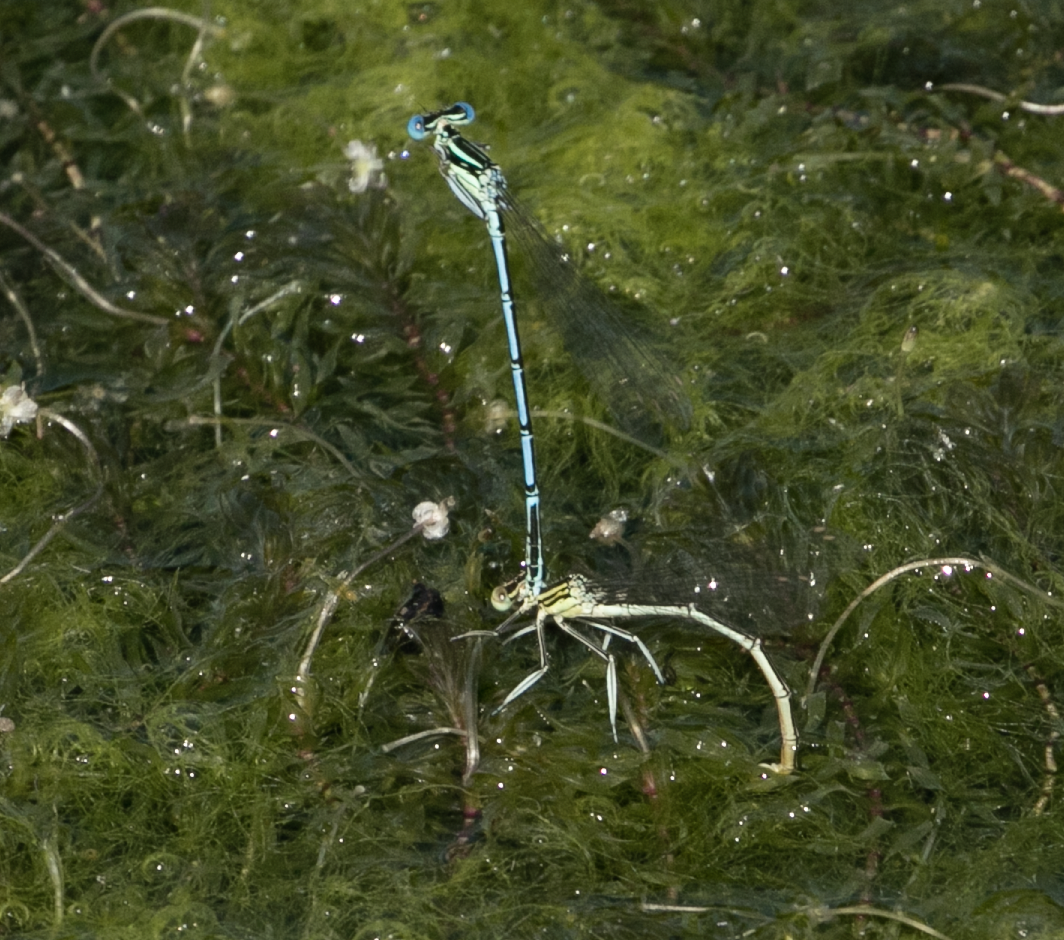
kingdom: Animalia
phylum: Arthropoda
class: Insecta
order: Odonata
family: Platycnemididae
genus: Platycnemis
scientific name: Platycnemis pennipes
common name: White-legged damselfly
